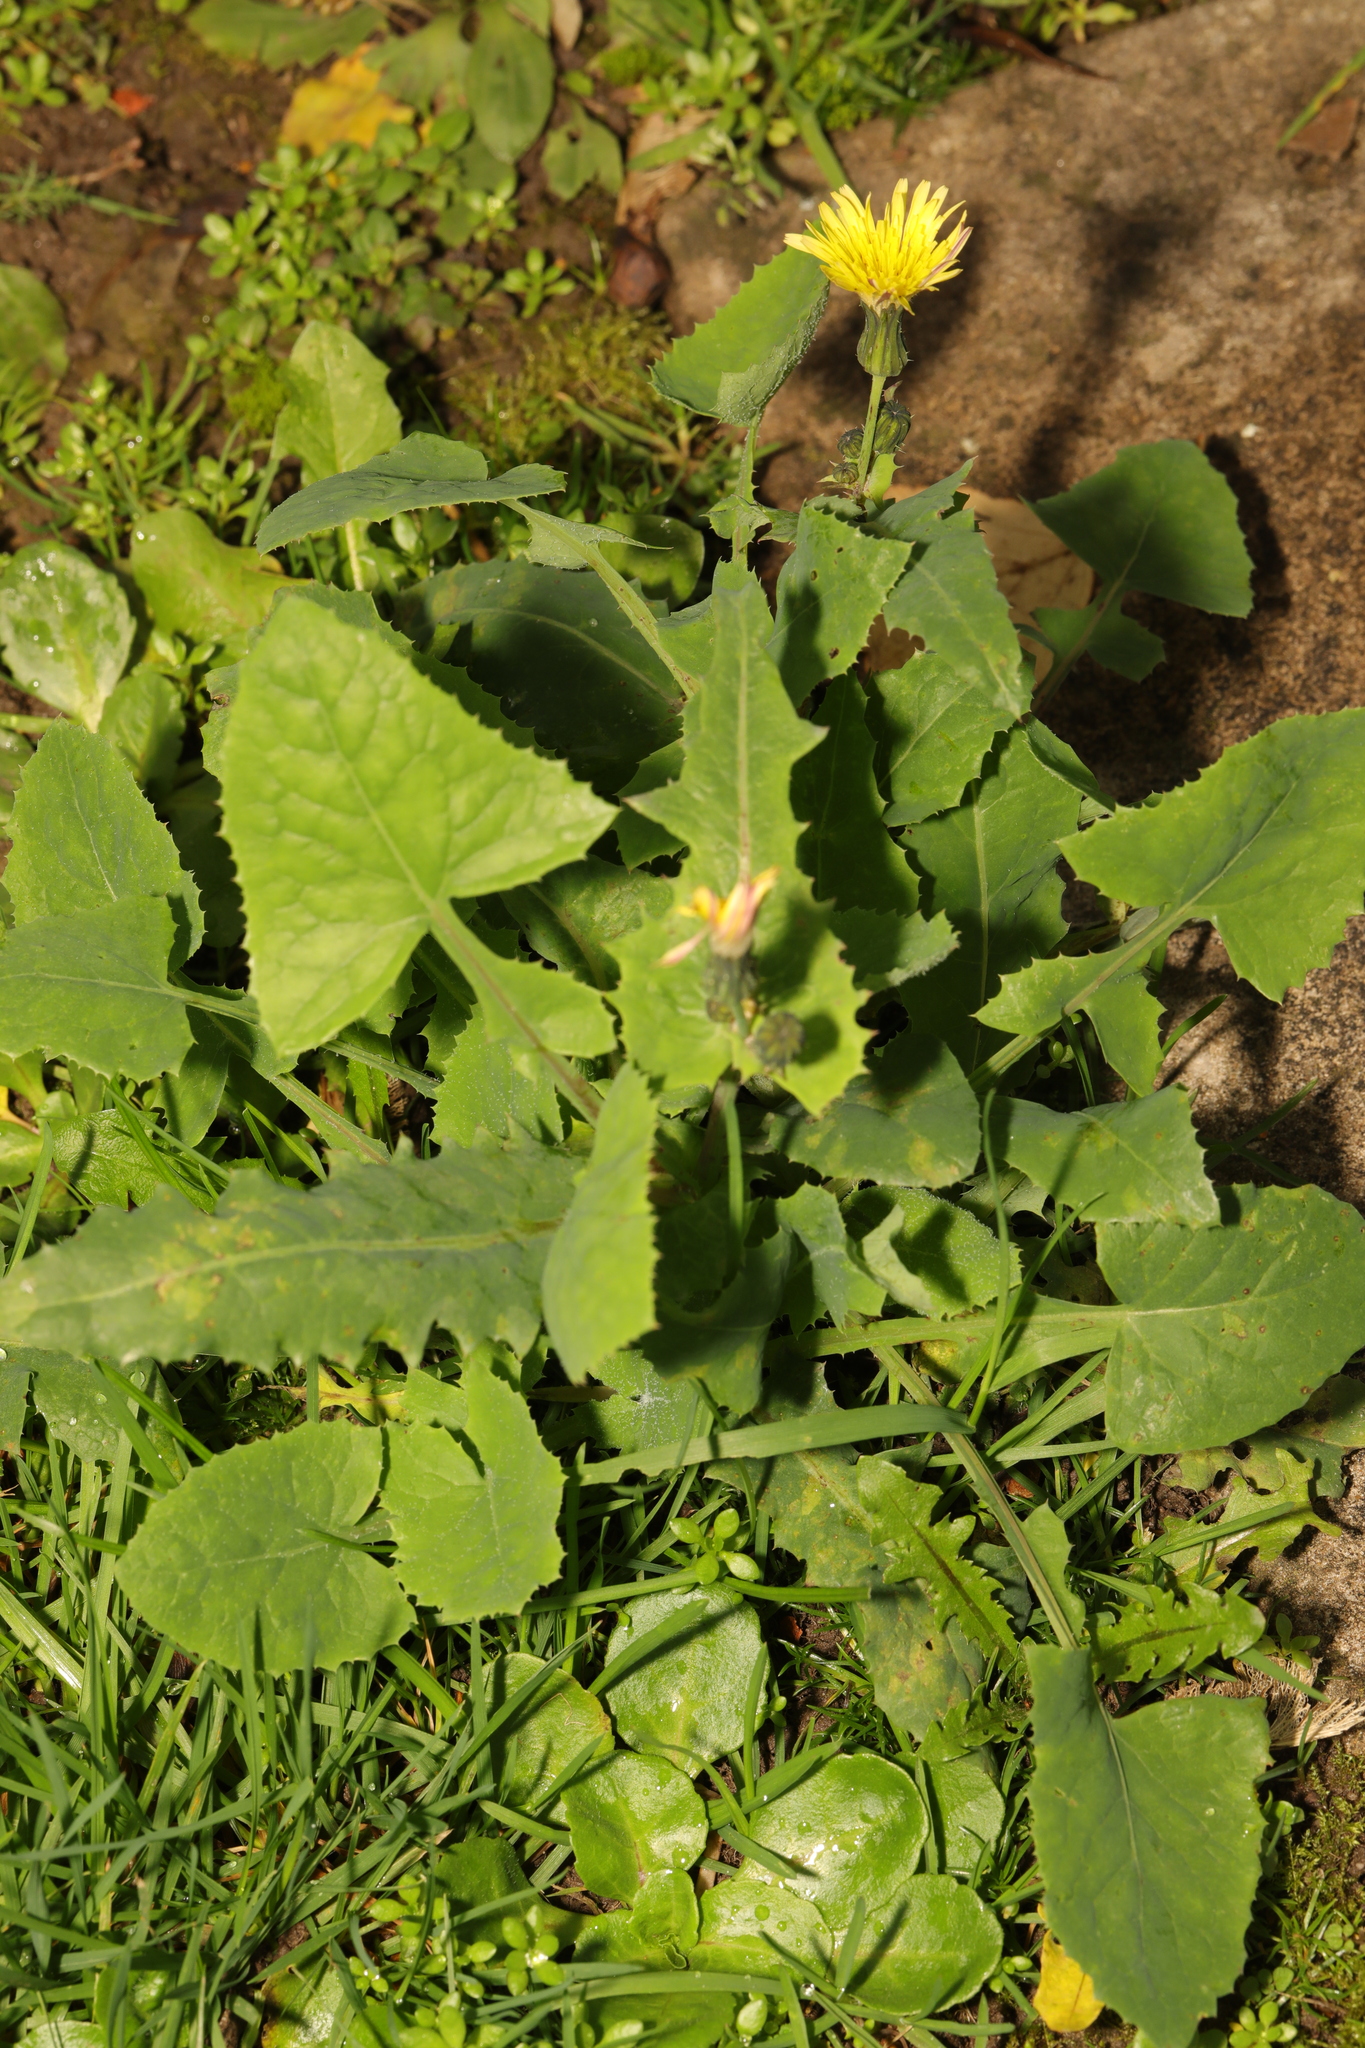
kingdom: Plantae
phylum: Tracheophyta
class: Magnoliopsida
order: Asterales
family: Asteraceae
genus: Sonchus
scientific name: Sonchus oleraceus
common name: Common sowthistle
